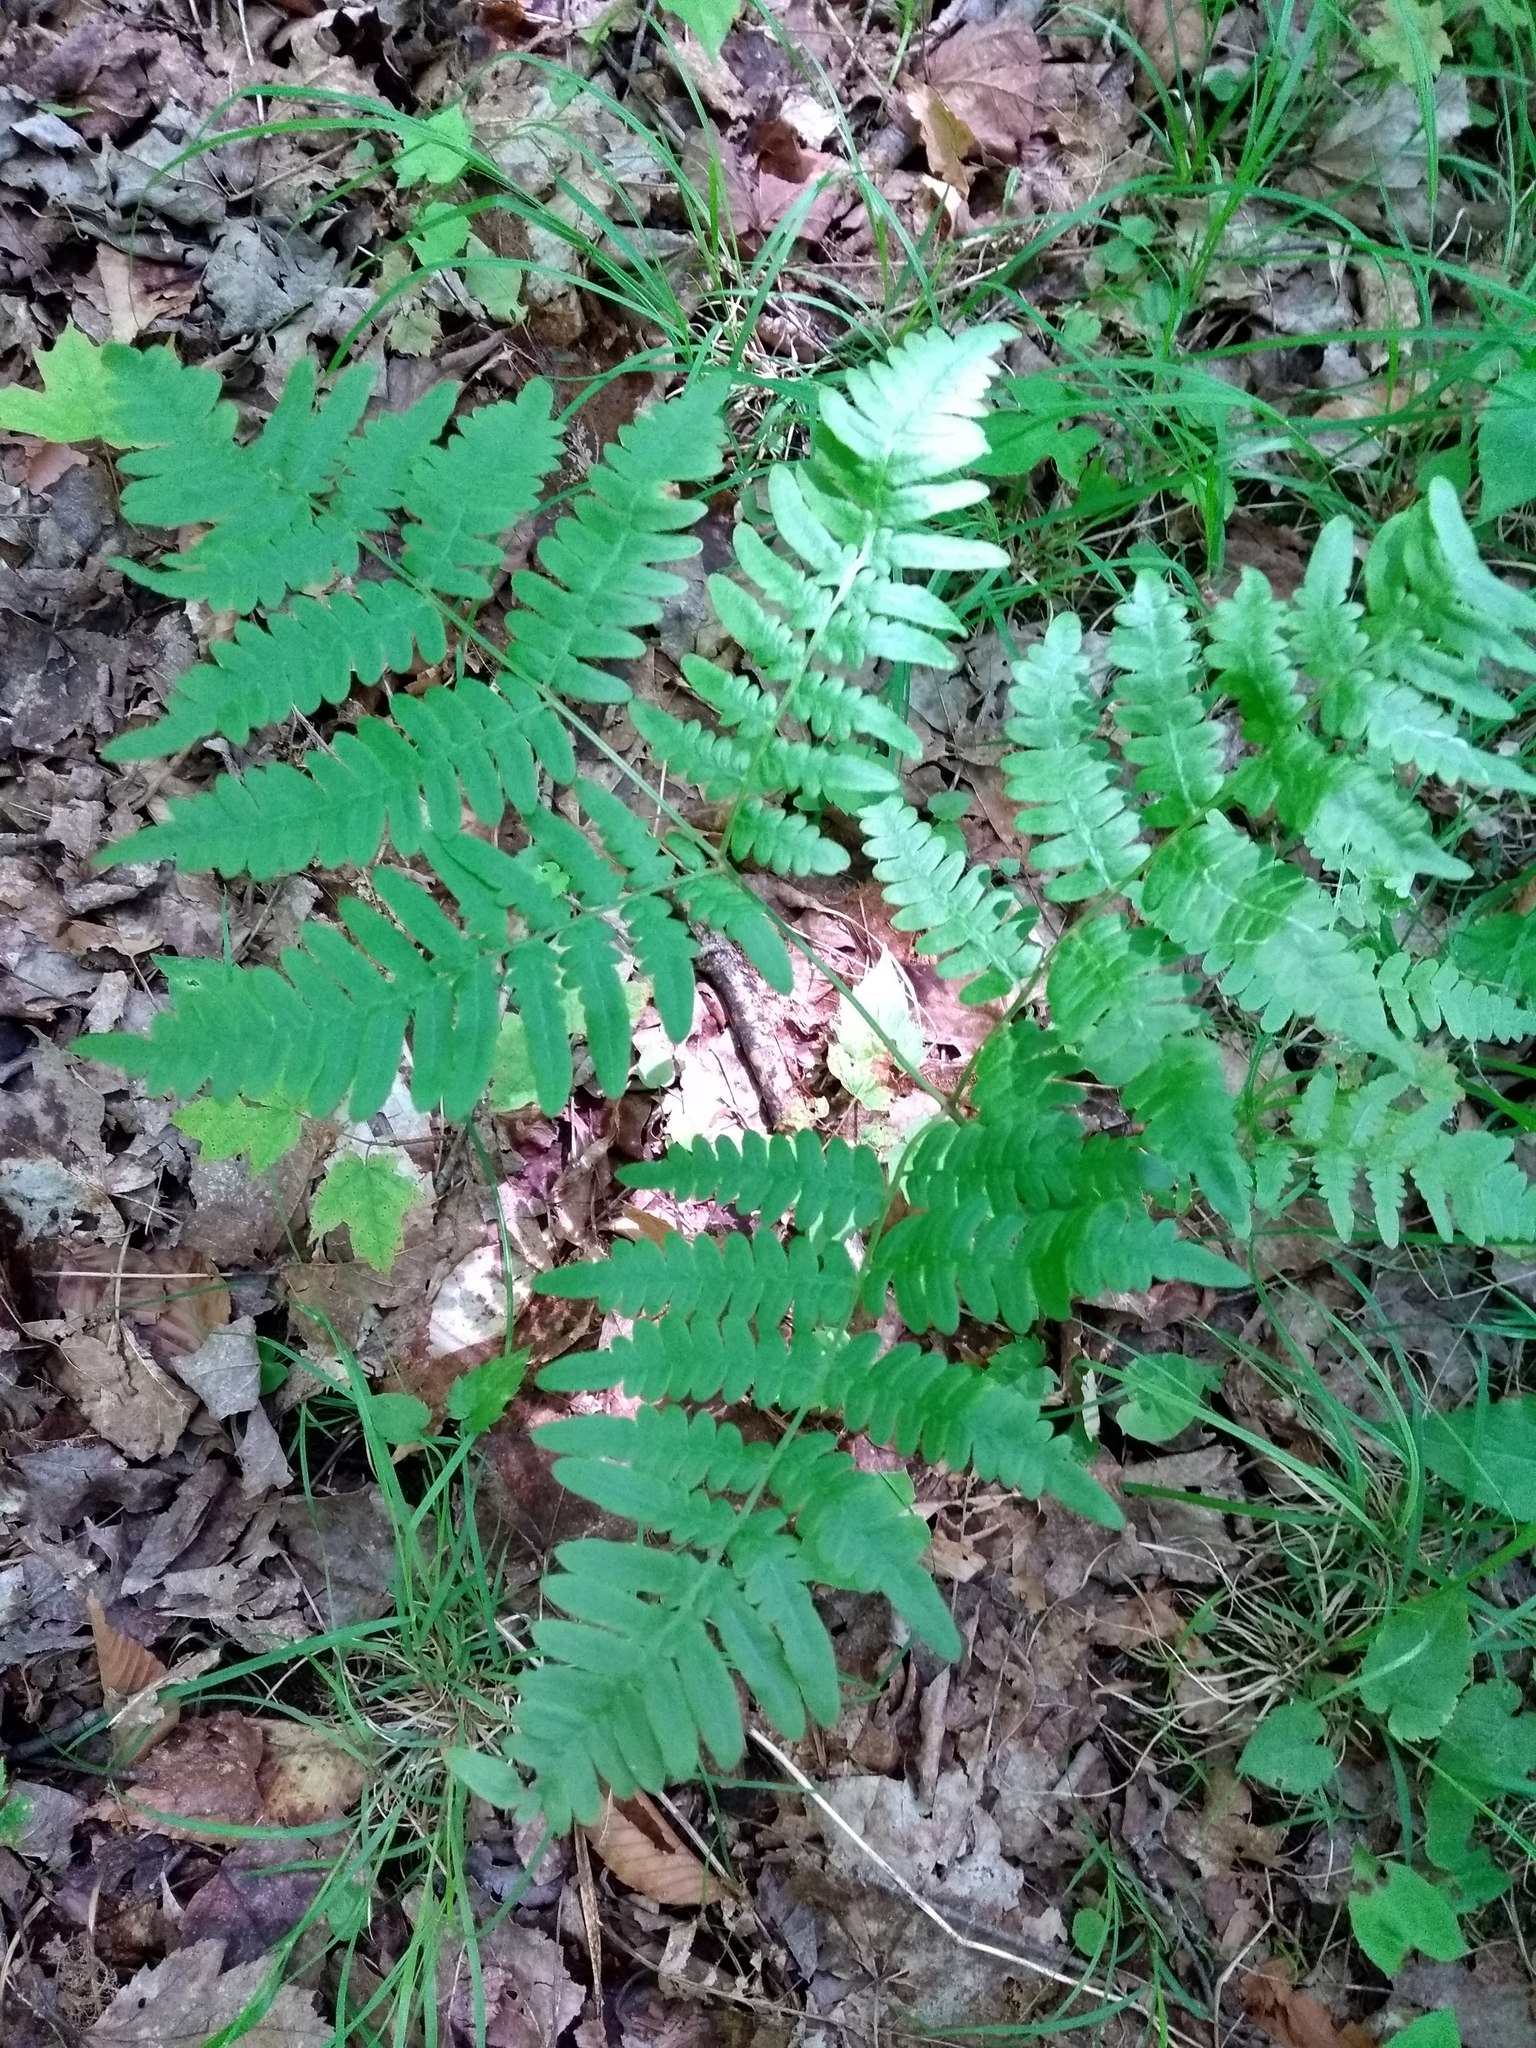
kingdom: Plantae
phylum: Tracheophyta
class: Polypodiopsida
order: Polypodiales
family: Dennstaedtiaceae
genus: Pteridium
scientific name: Pteridium aquilinum
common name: Bracken
